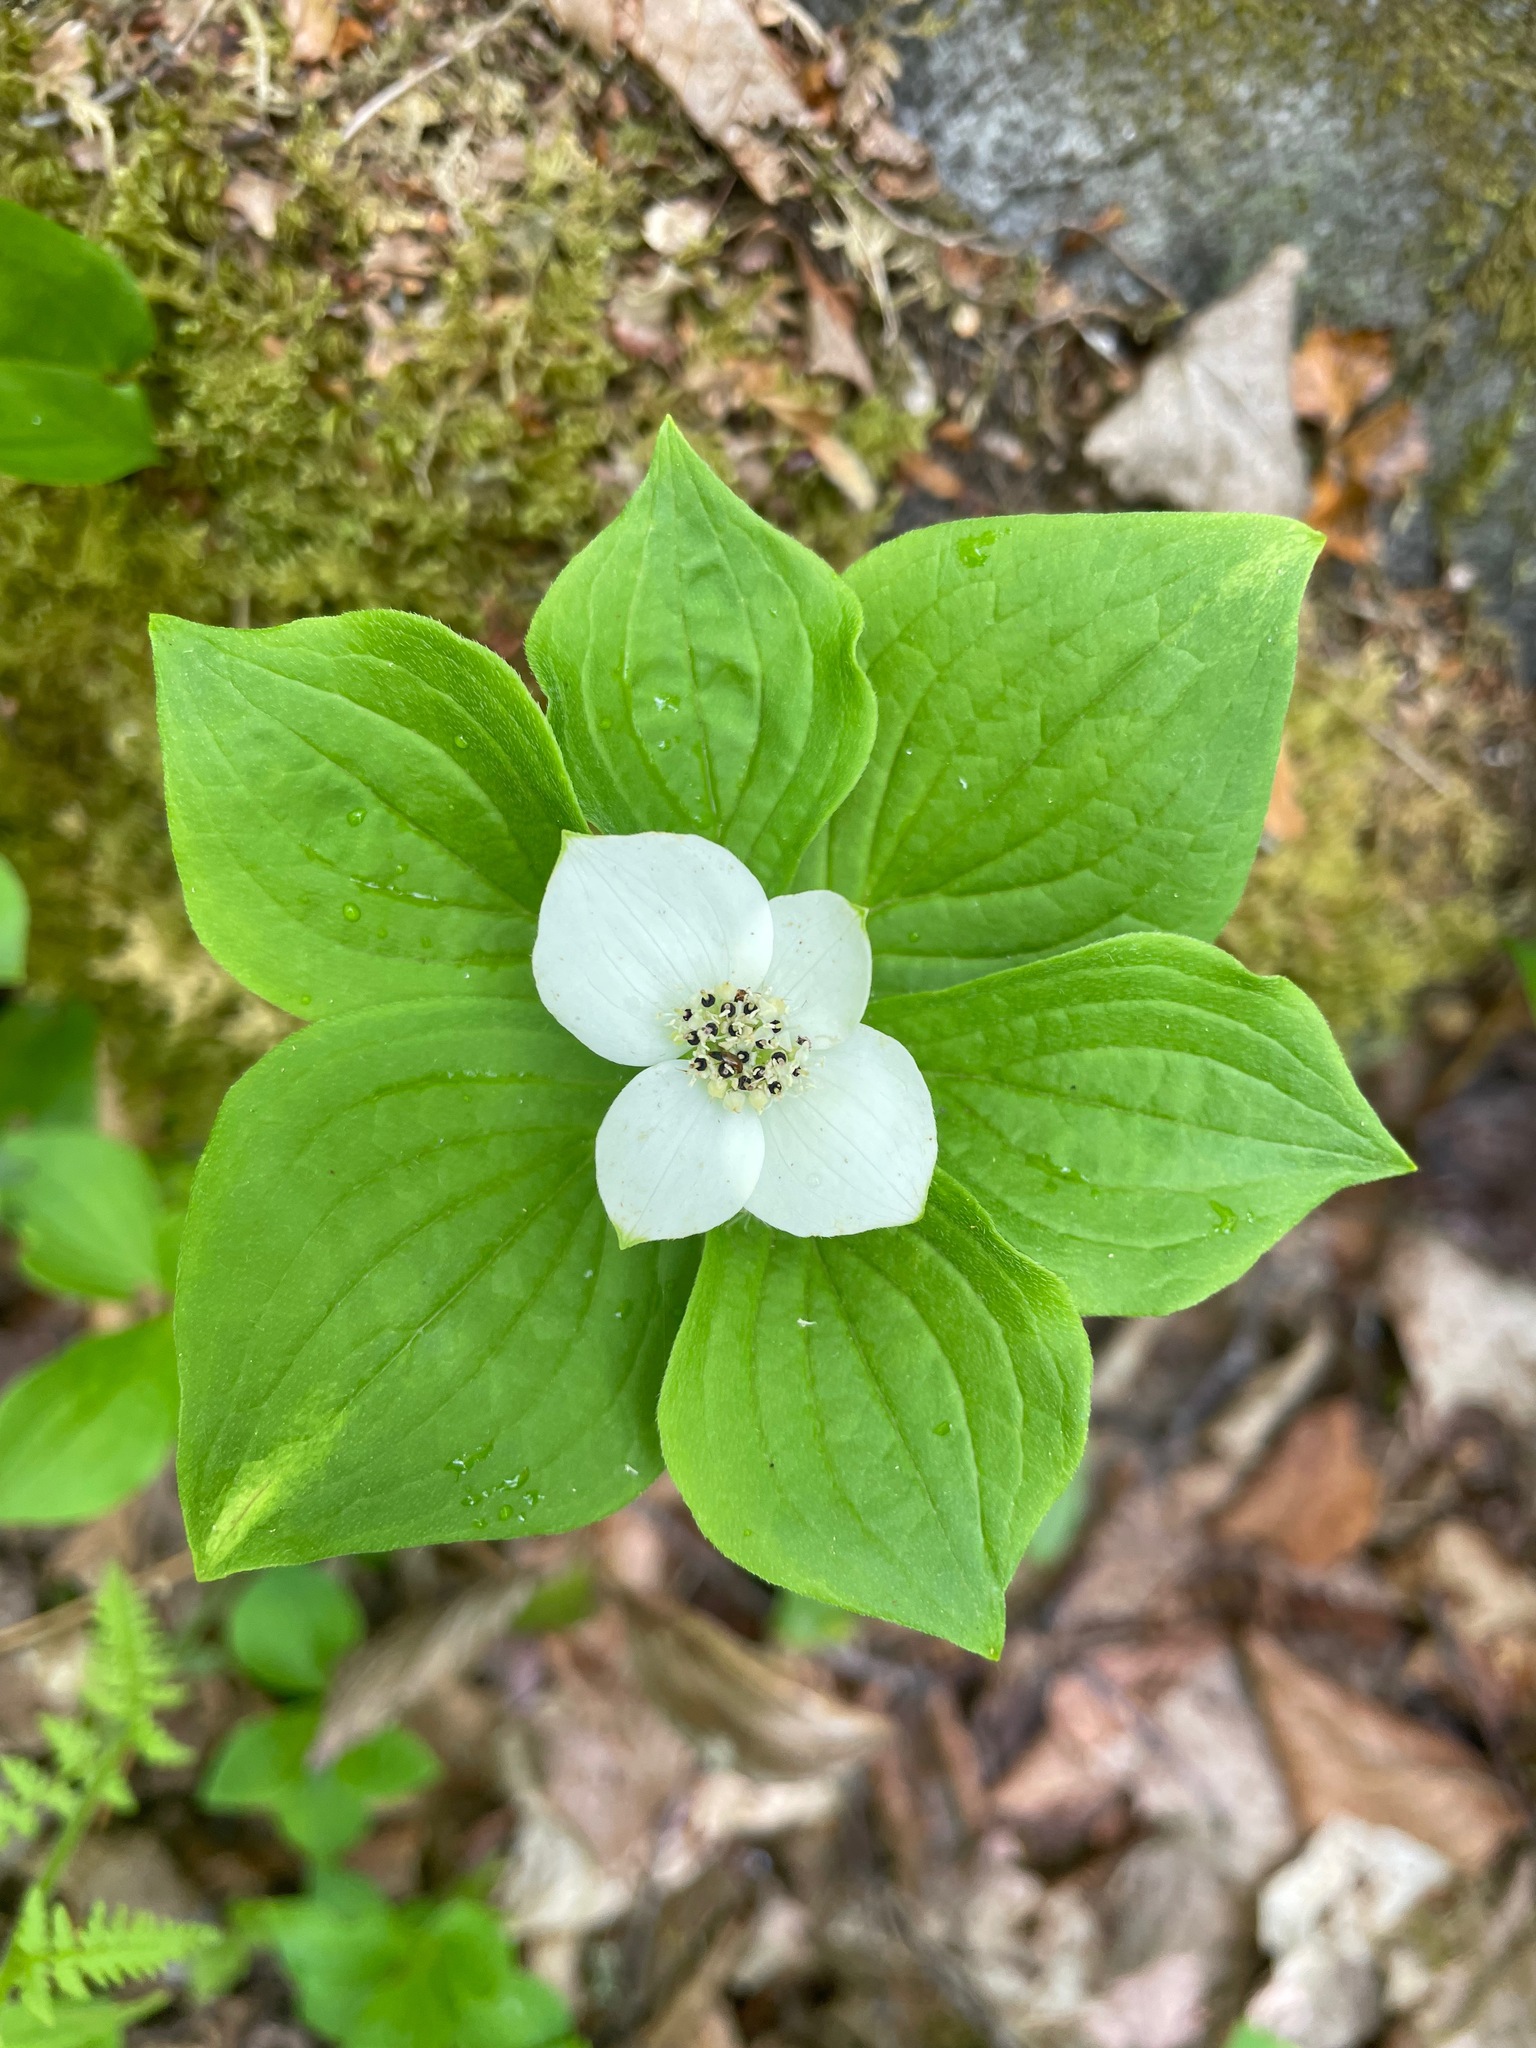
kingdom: Plantae
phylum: Tracheophyta
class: Magnoliopsida
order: Cornales
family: Cornaceae
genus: Cornus
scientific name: Cornus canadensis
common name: Creeping dogwood
